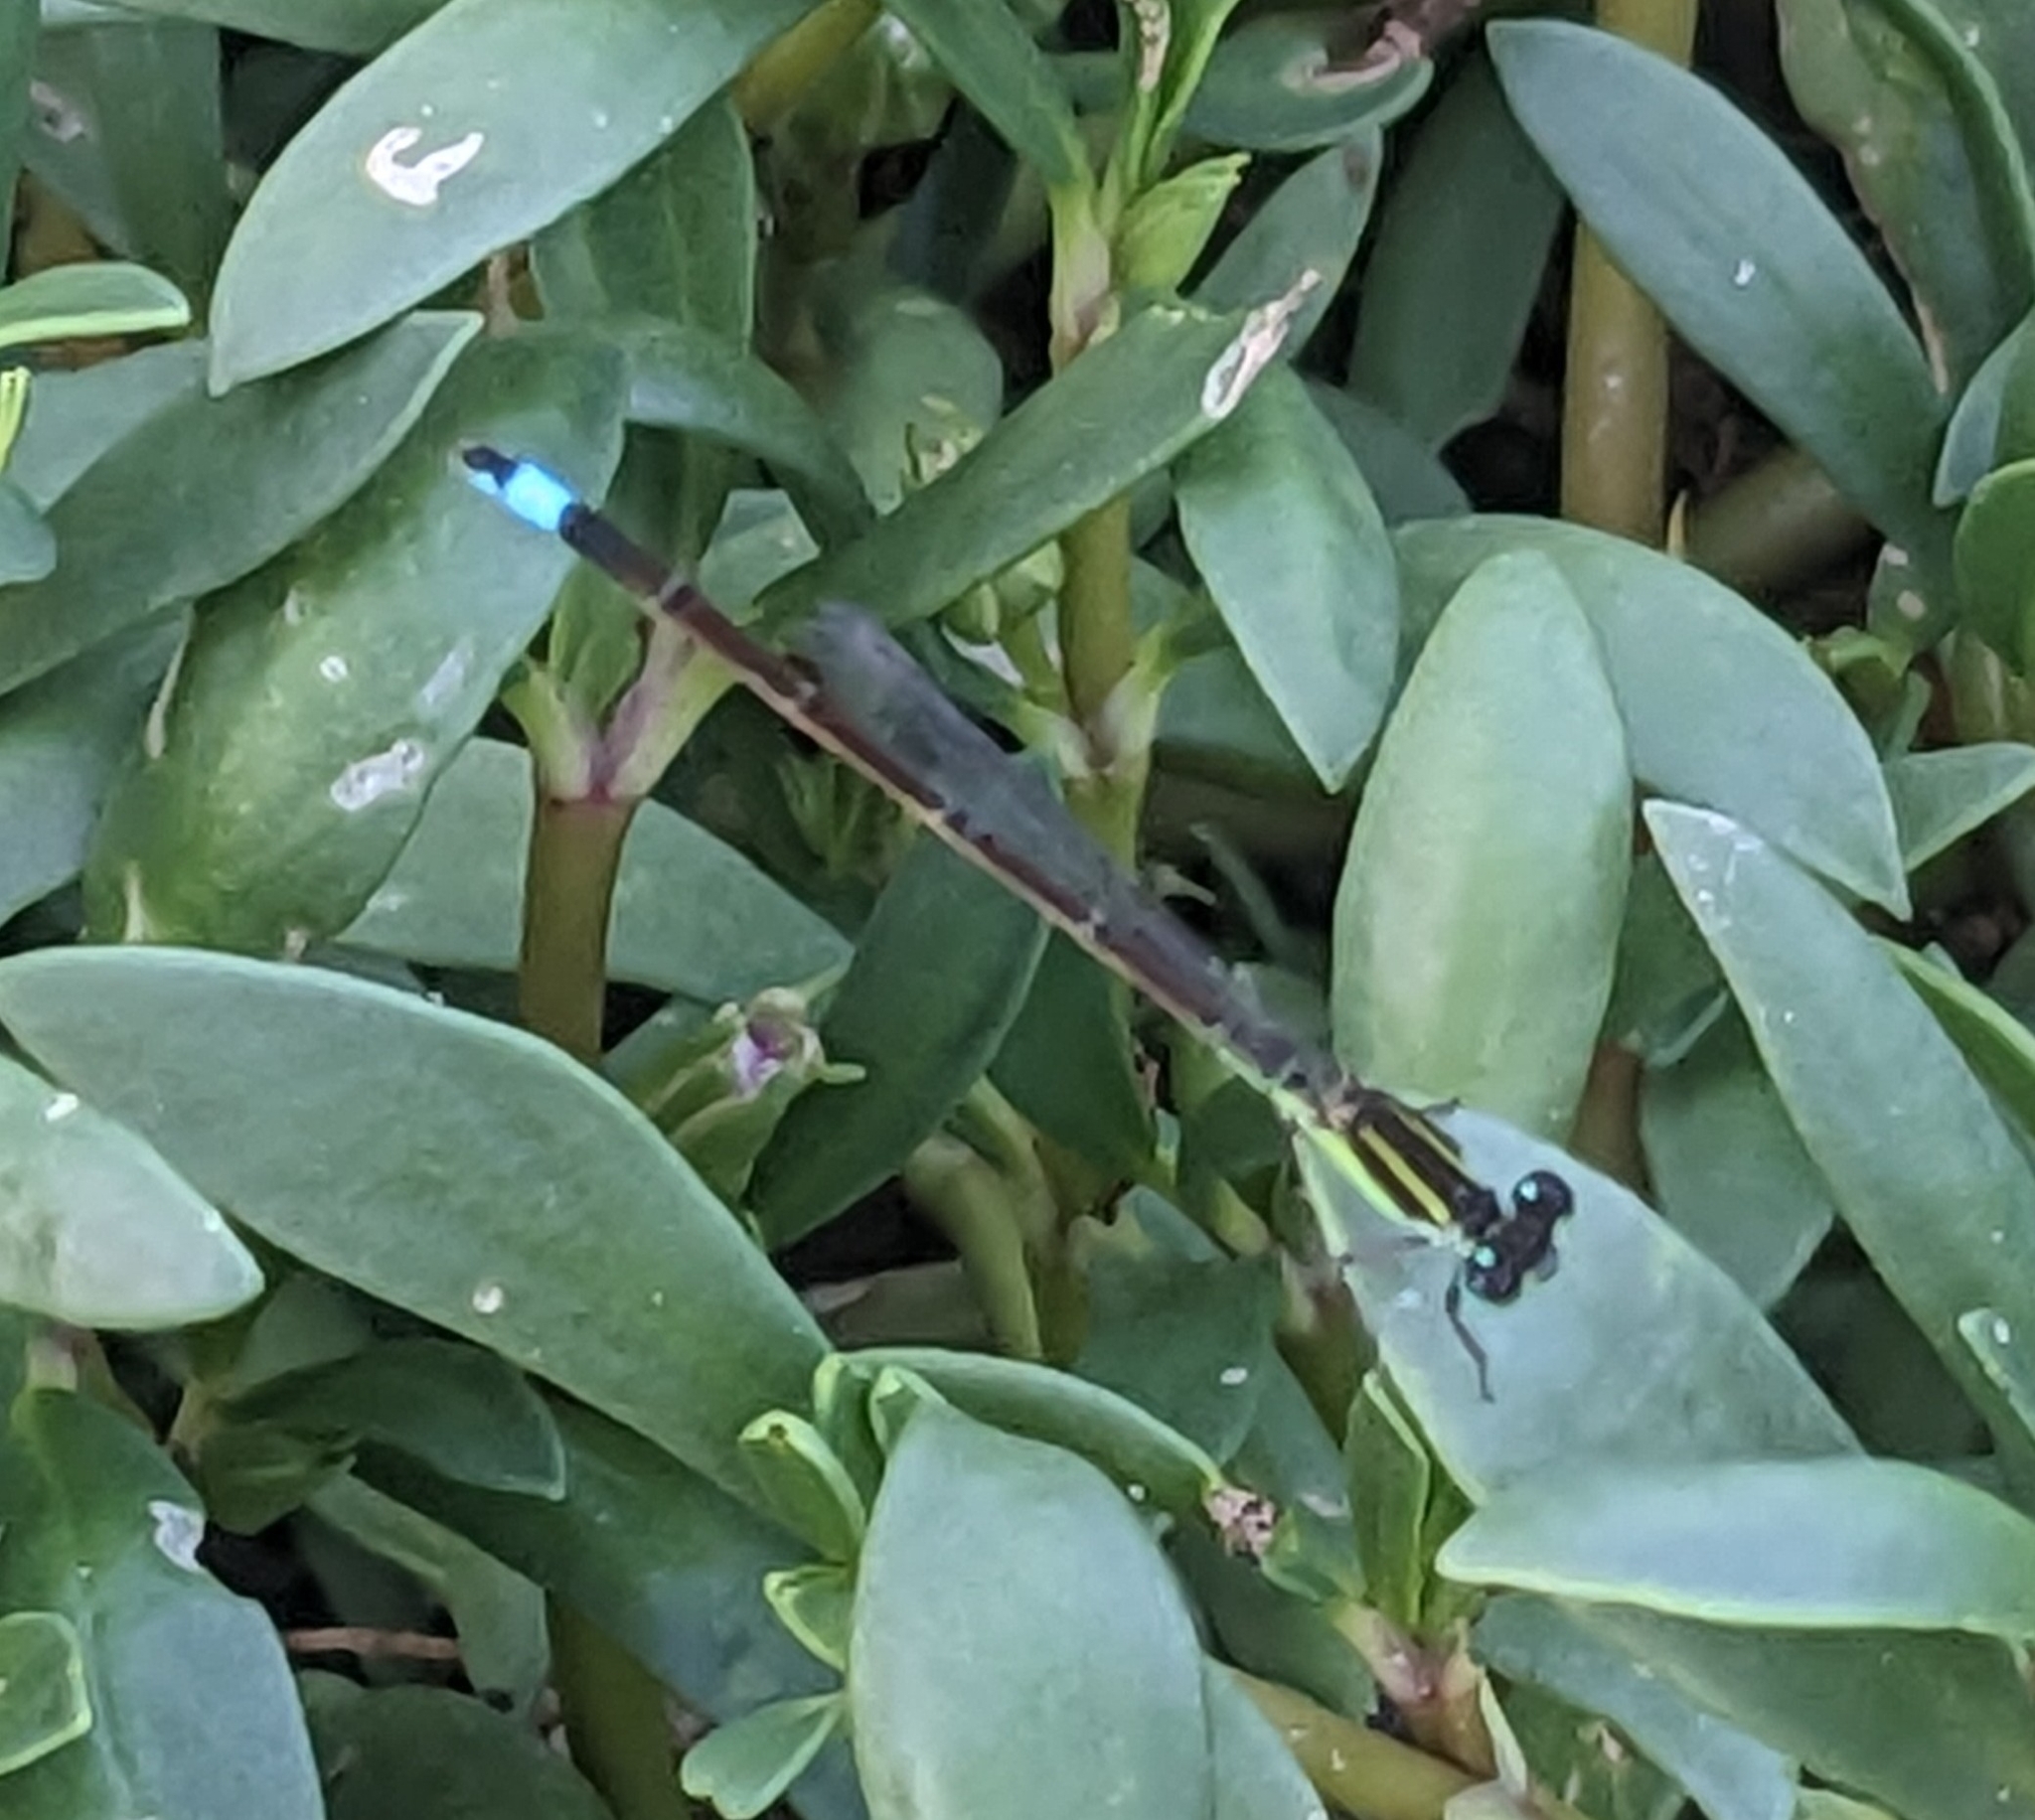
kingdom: Animalia
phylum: Arthropoda
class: Insecta
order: Odonata
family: Coenagrionidae
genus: Ischnura
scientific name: Ischnura ramburii
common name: Rambur's forktail
